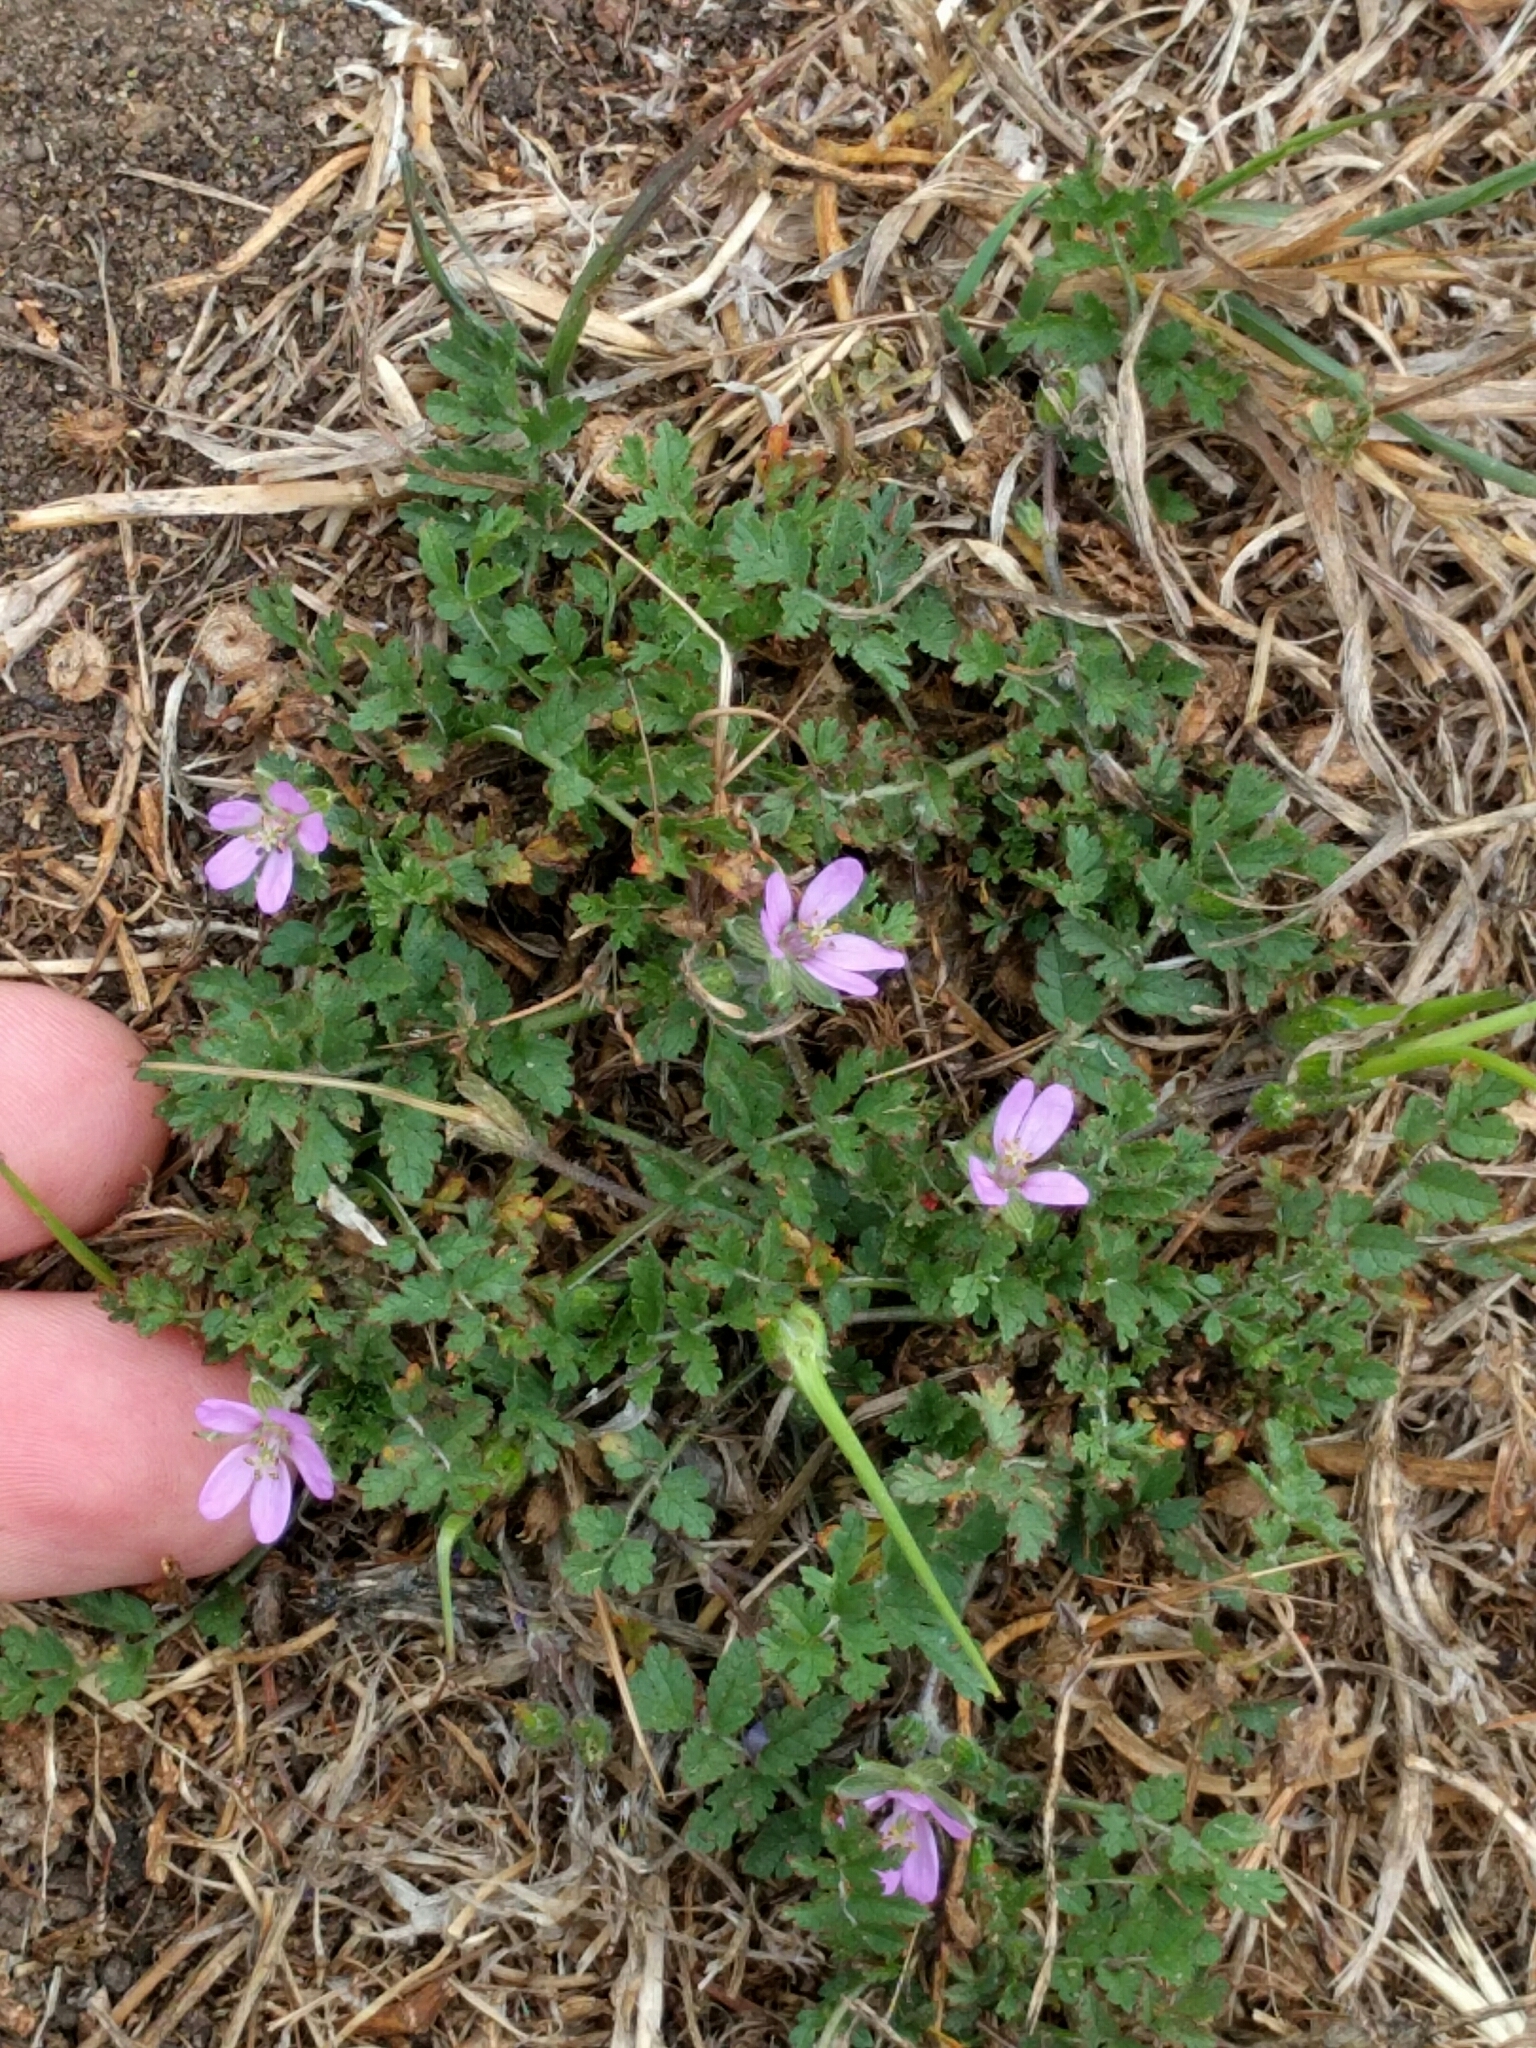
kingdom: Plantae
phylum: Tracheophyta
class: Magnoliopsida
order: Geraniales
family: Geraniaceae
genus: Erodium
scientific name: Erodium moschatum
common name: Musk stork's-bill
